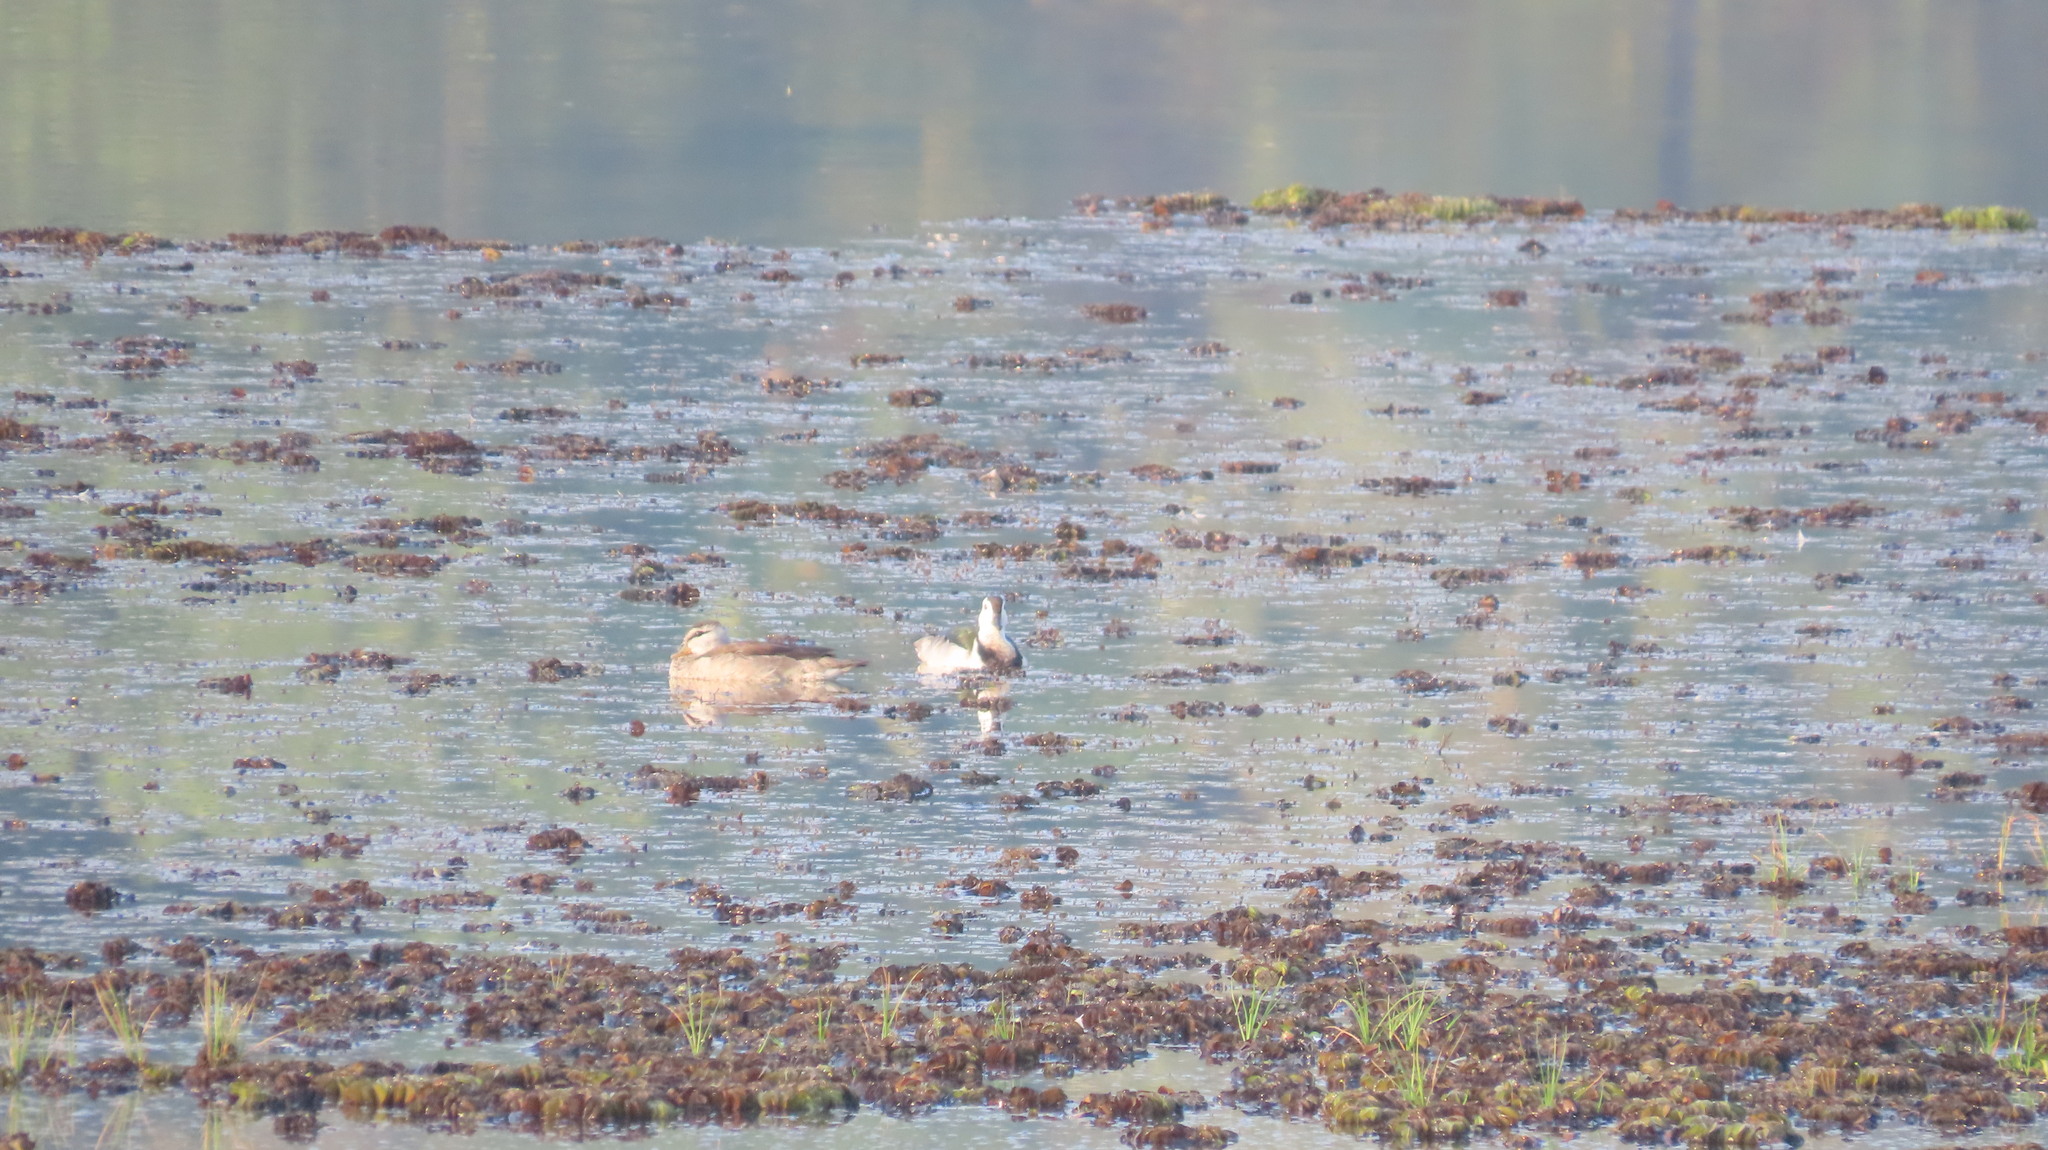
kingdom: Animalia
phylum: Chordata
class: Aves
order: Anseriformes
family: Anatidae
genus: Nettapus
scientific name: Nettapus coromandelianus
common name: Cotton pygmy-goose
